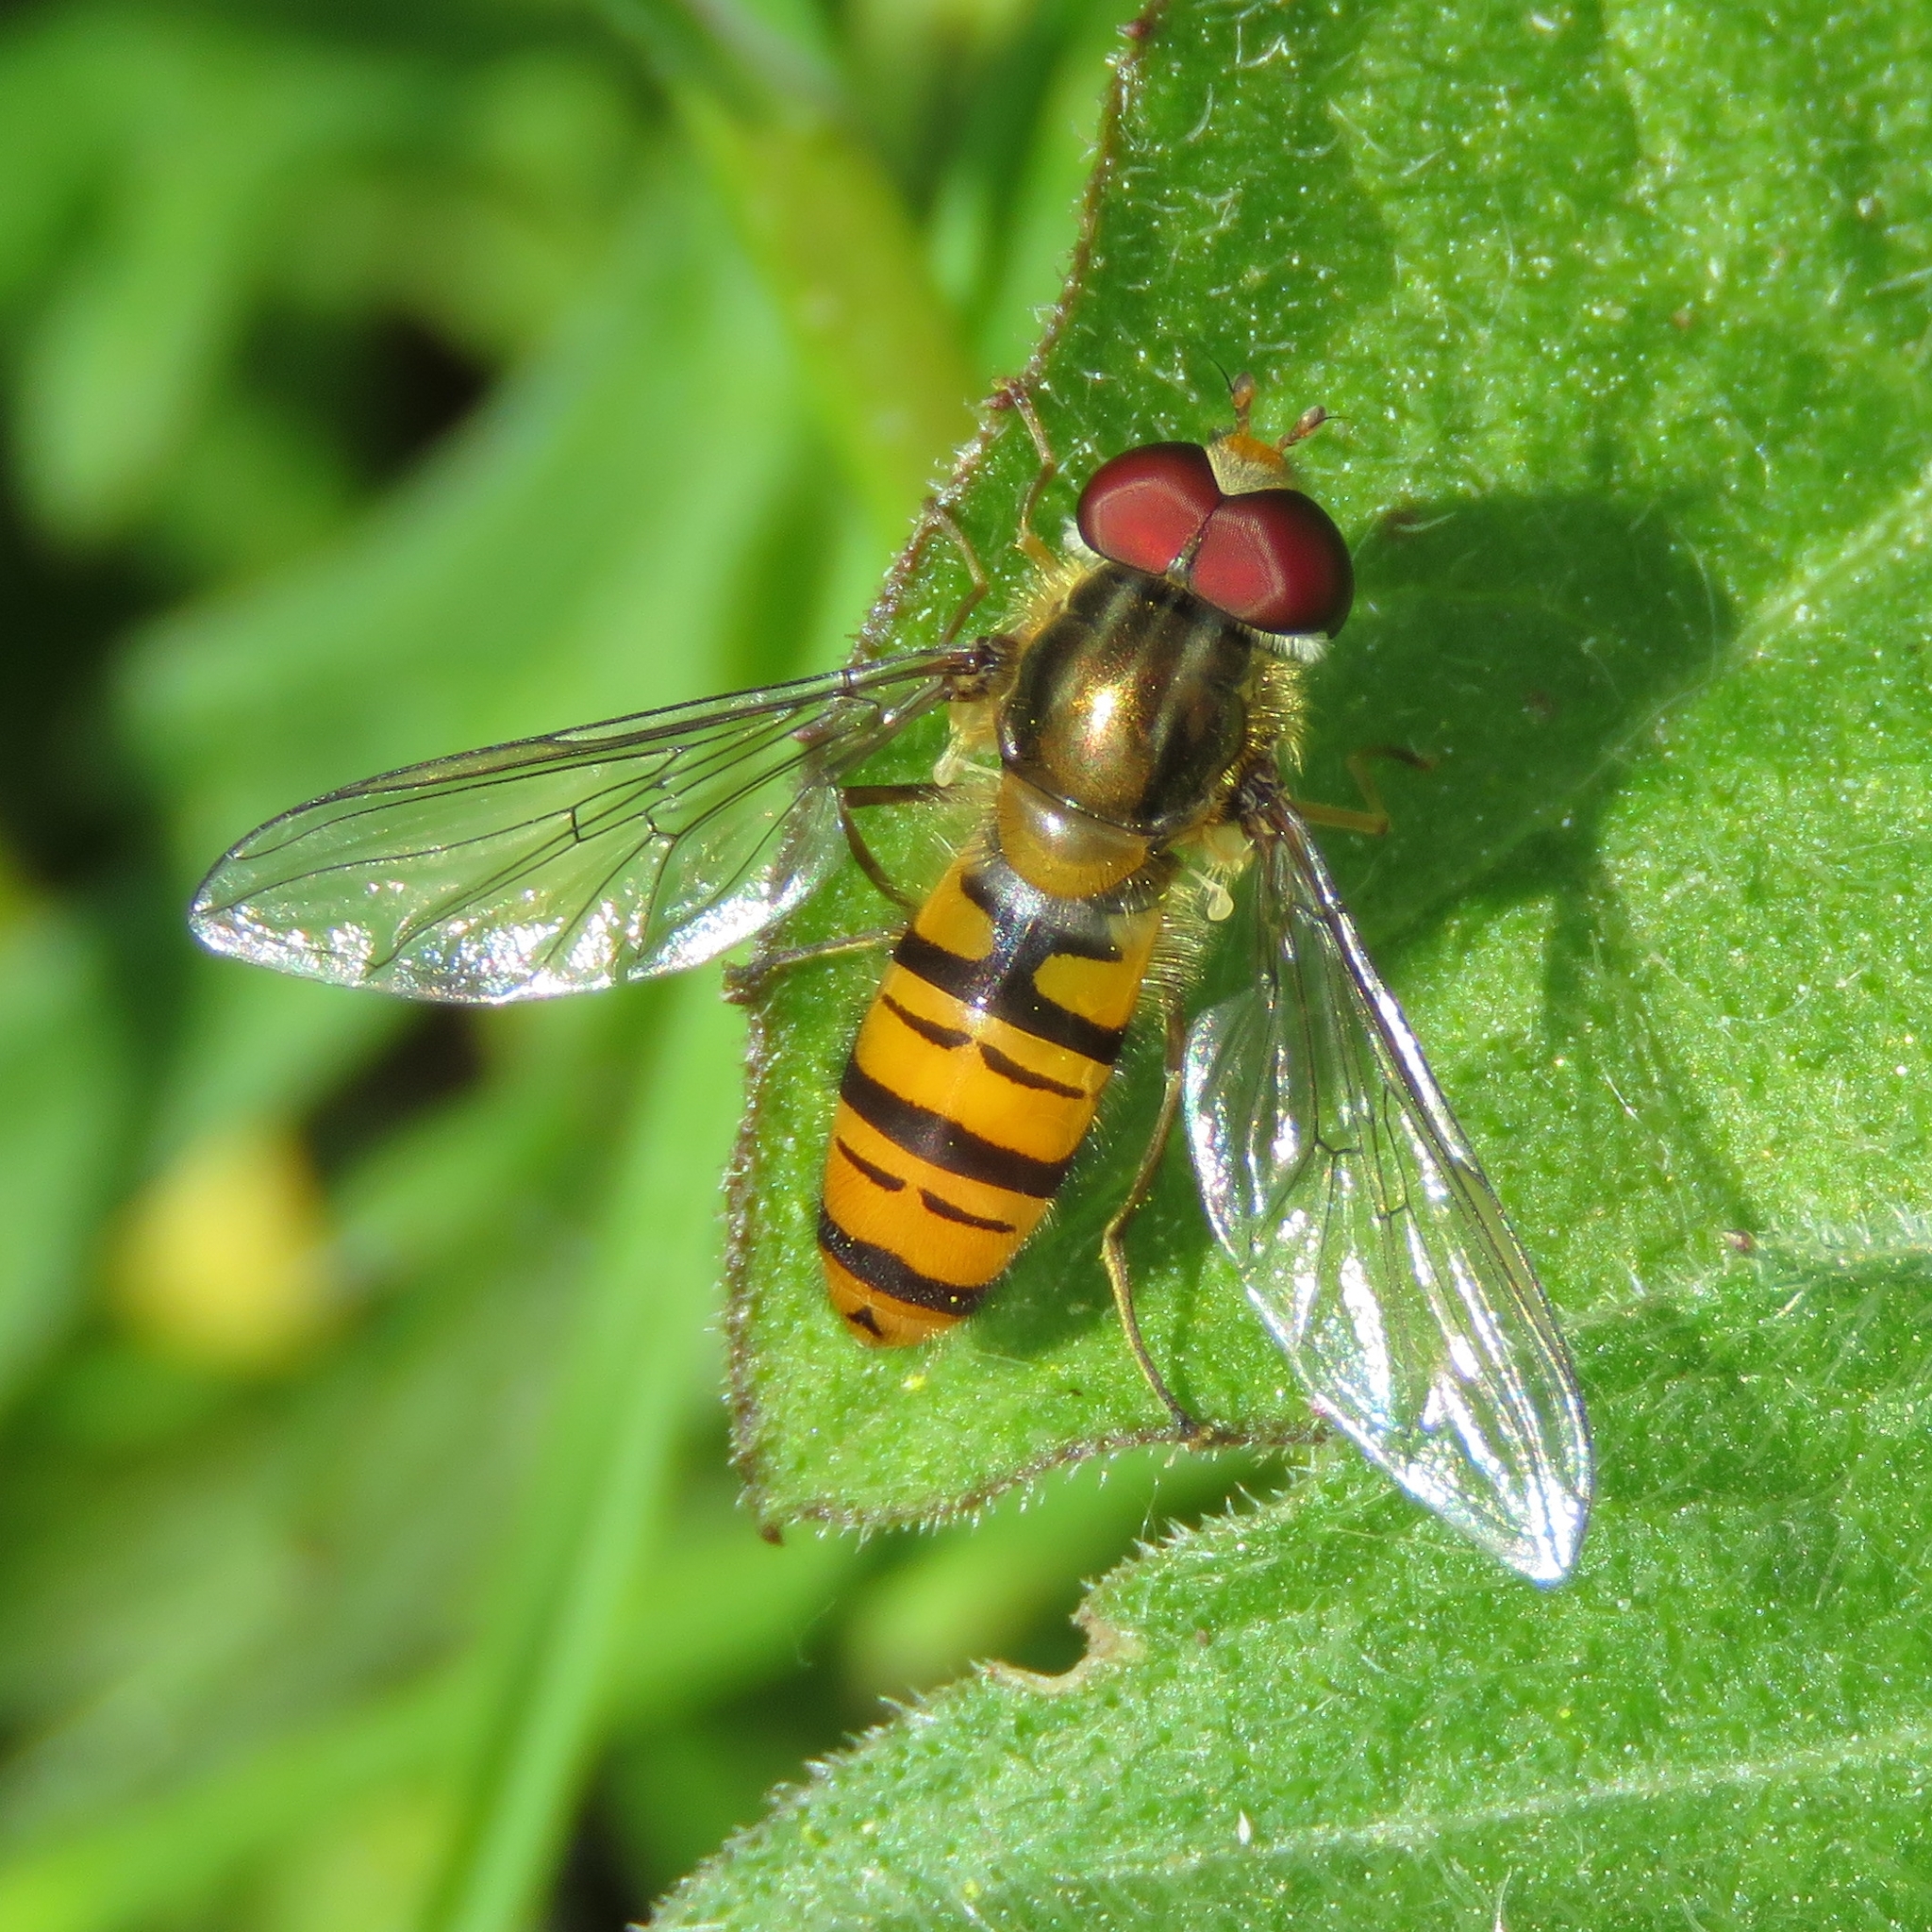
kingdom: Animalia
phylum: Arthropoda
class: Insecta
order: Diptera
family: Syrphidae
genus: Episyrphus
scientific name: Episyrphus balteatus
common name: Marmalade hoverfly
